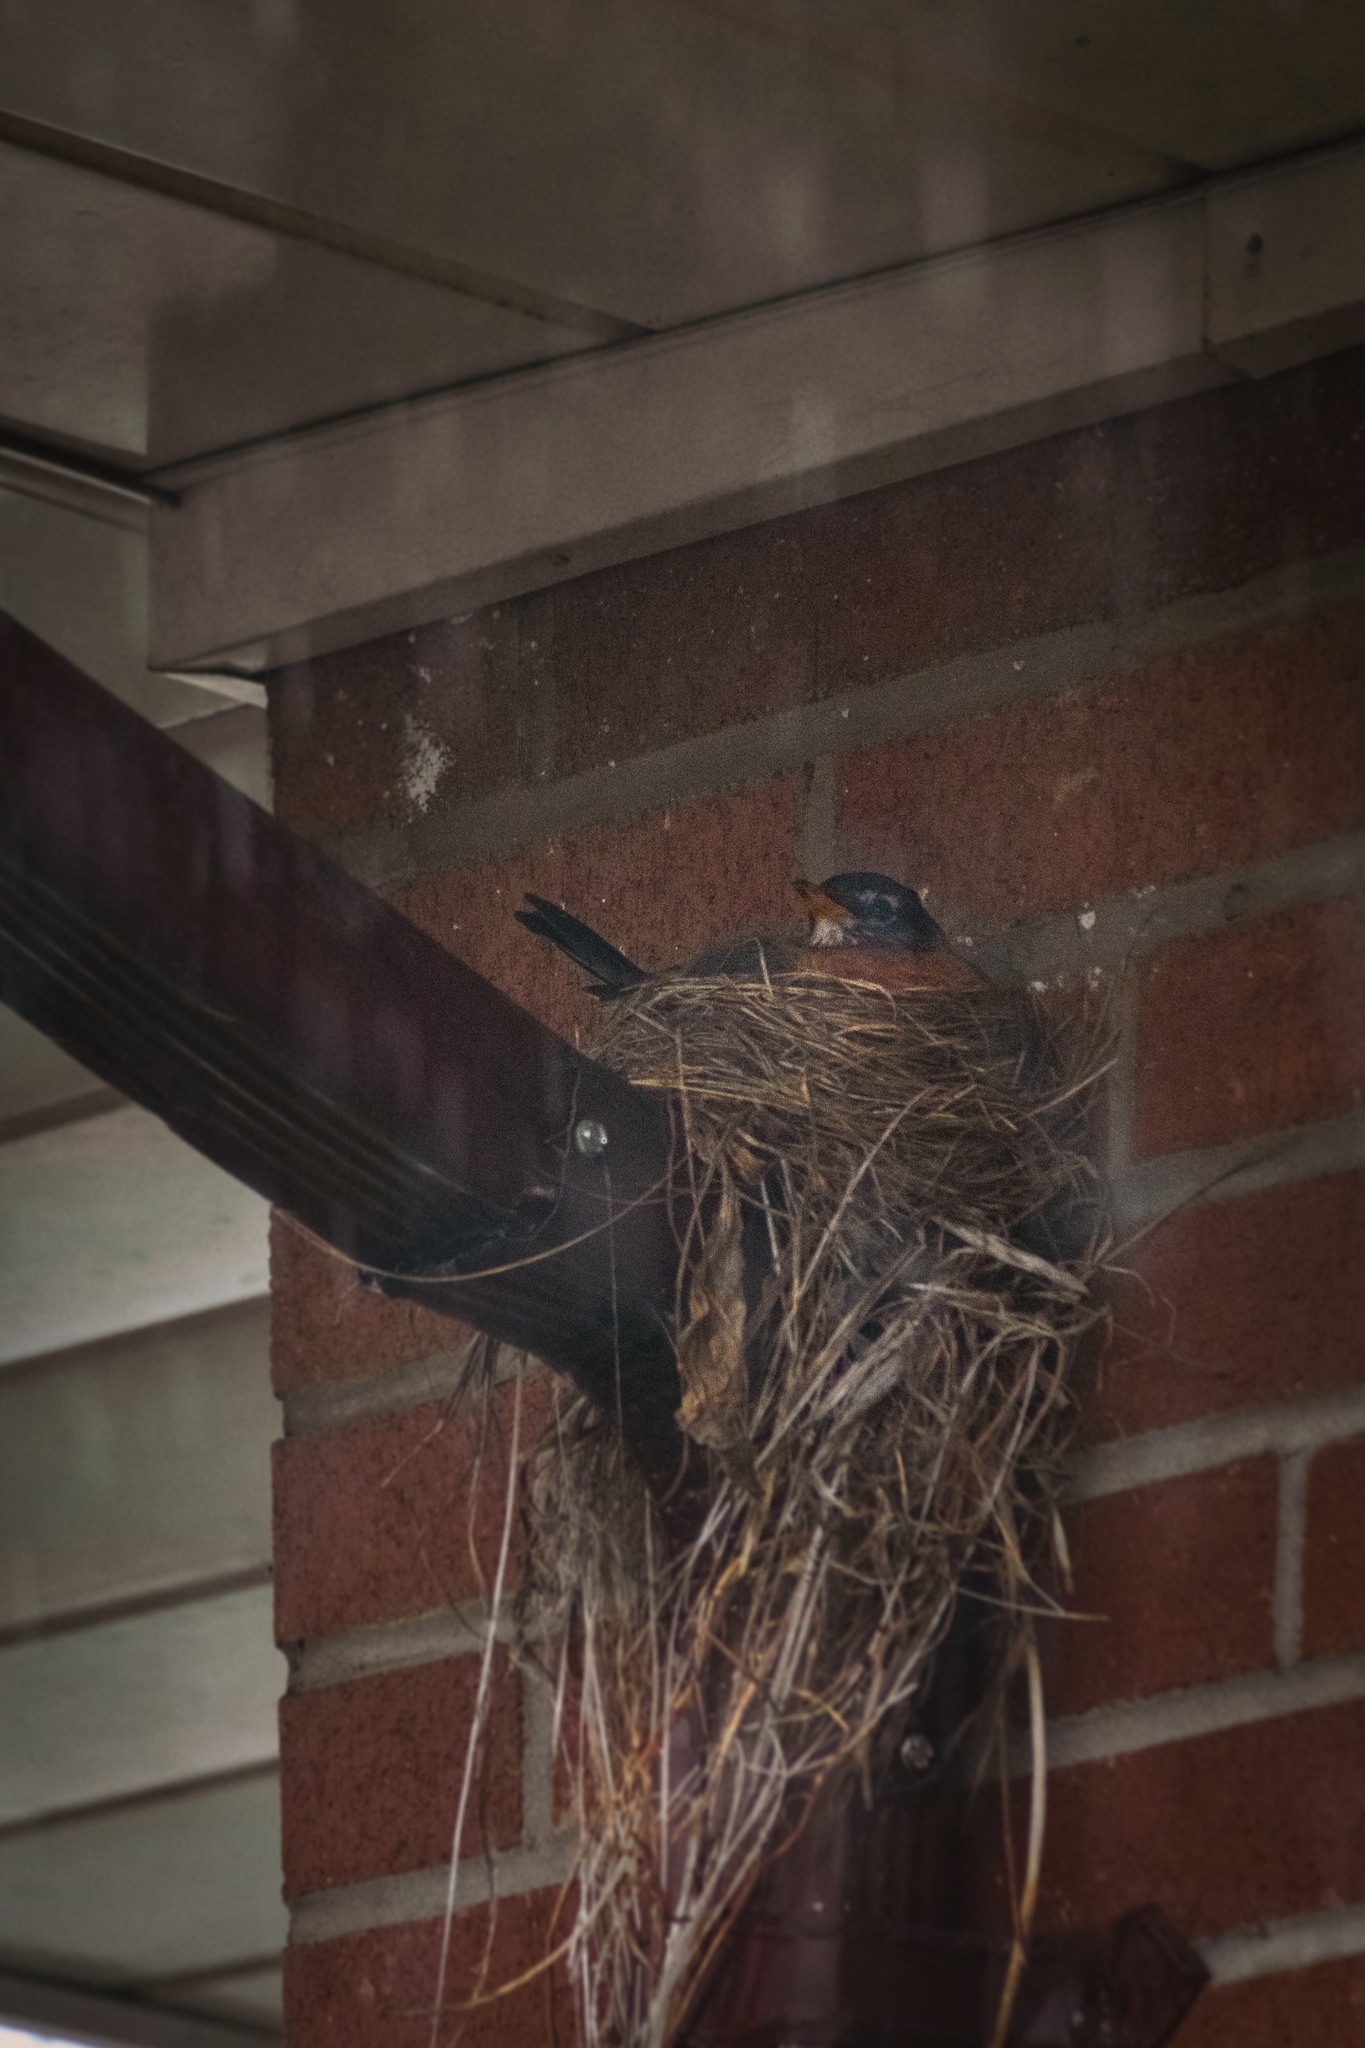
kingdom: Animalia
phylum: Chordata
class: Aves
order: Passeriformes
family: Turdidae
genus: Turdus
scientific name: Turdus migratorius
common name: American robin
